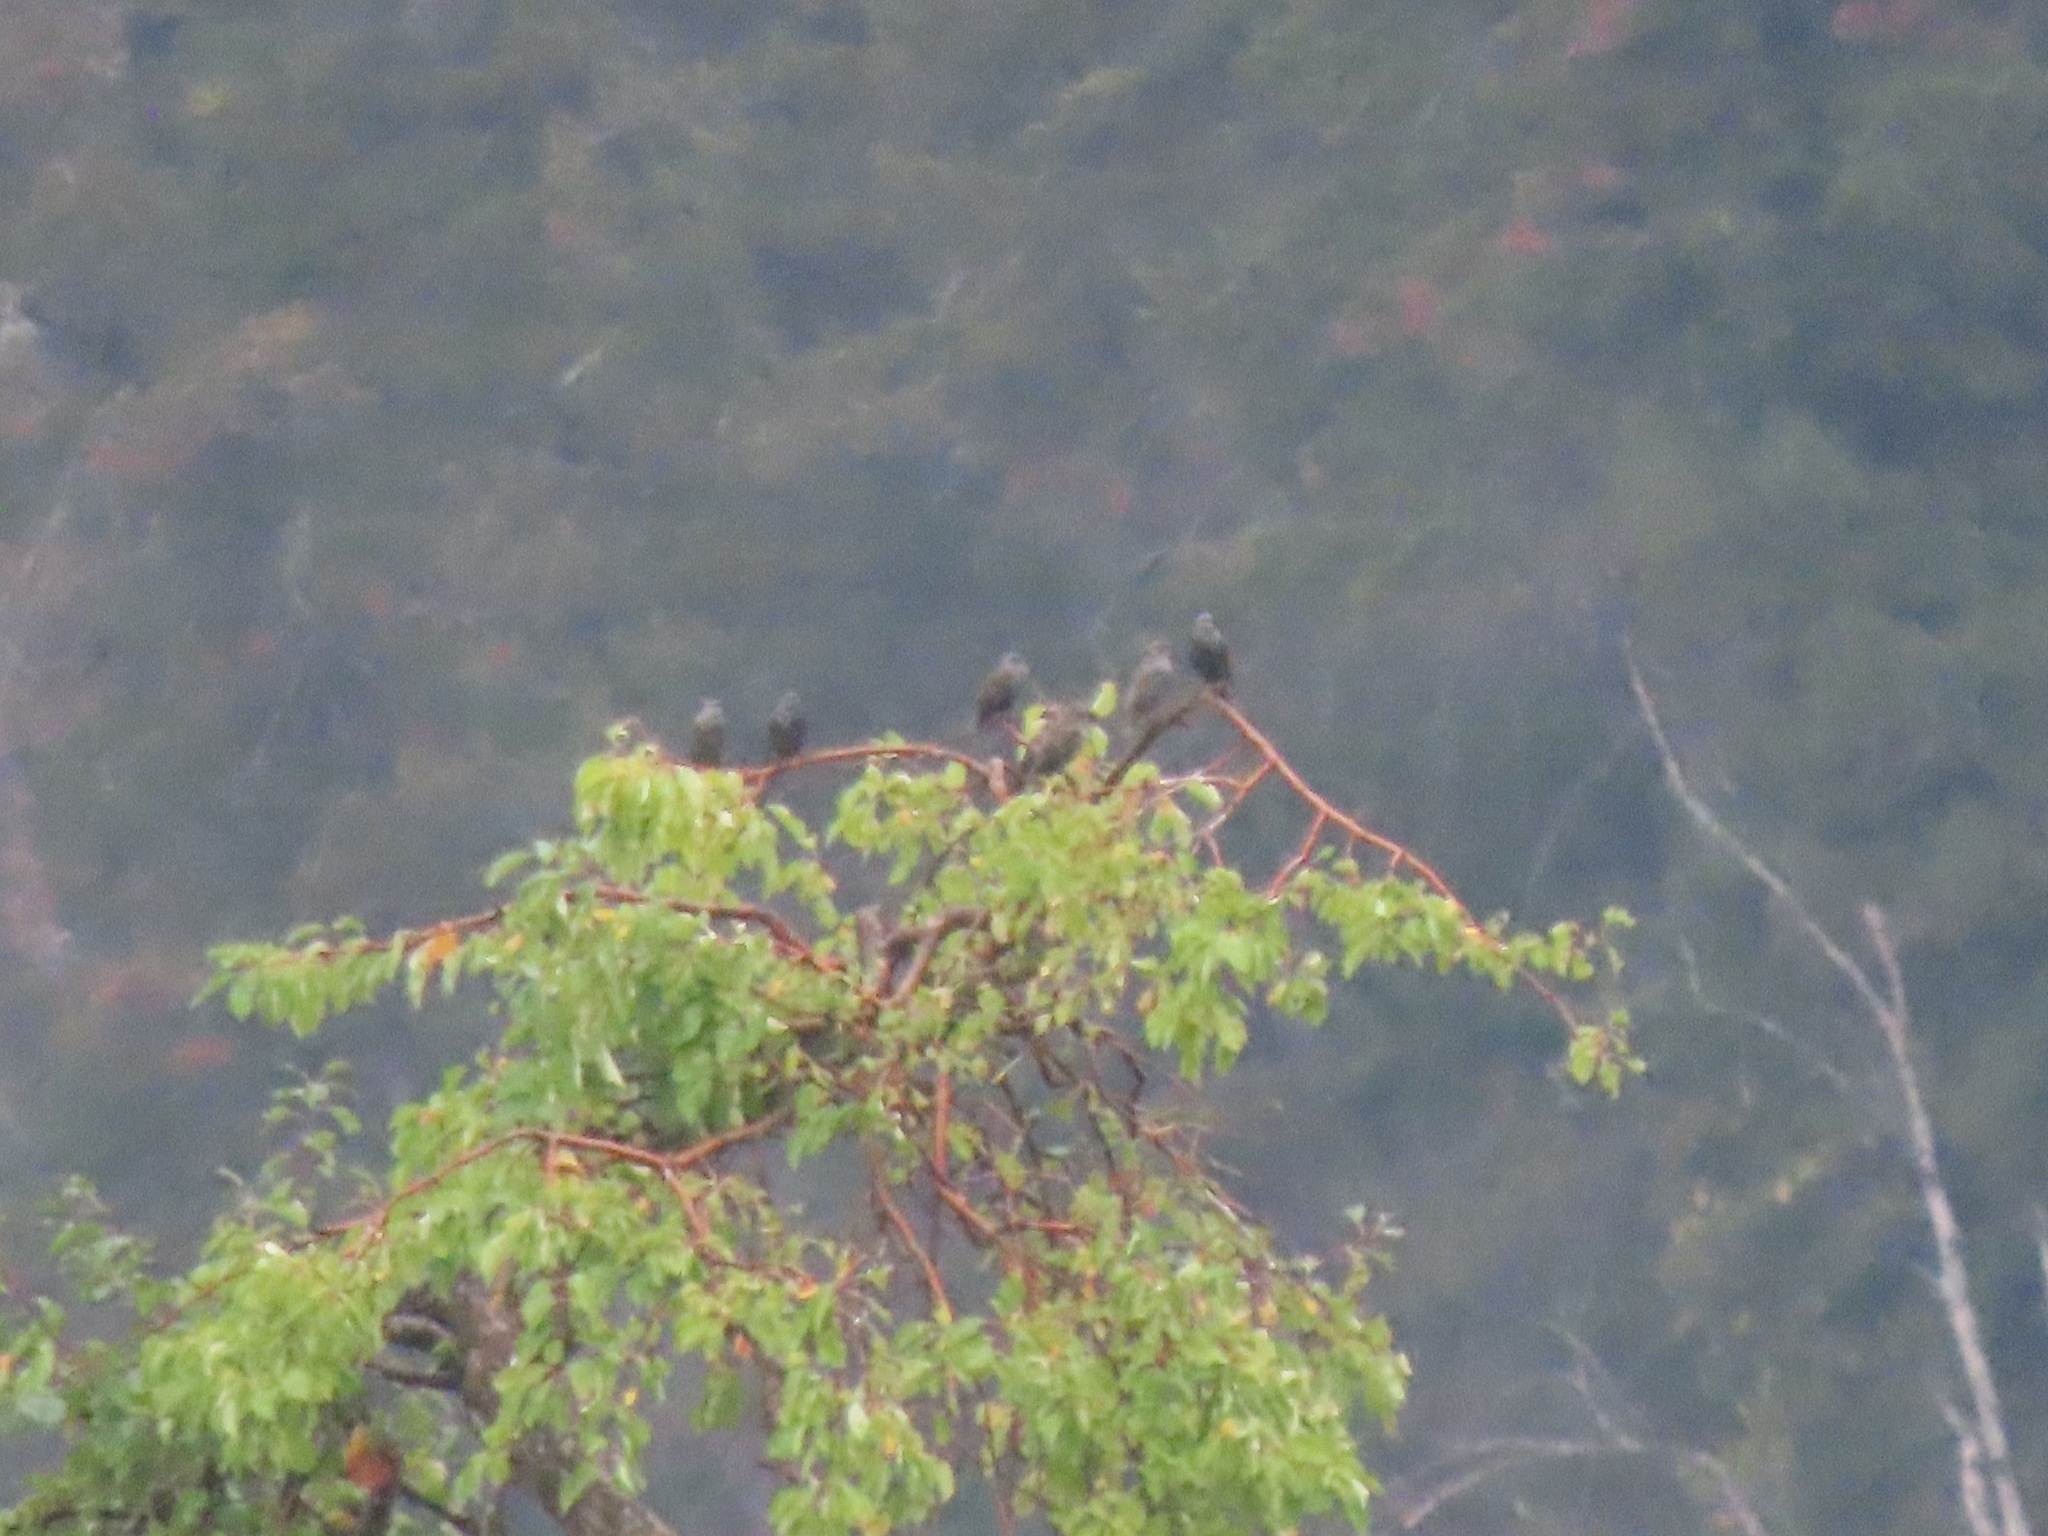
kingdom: Animalia
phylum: Chordata
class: Aves
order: Passeriformes
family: Sturnidae
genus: Sturnus
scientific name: Sturnus vulgaris
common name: Common starling
